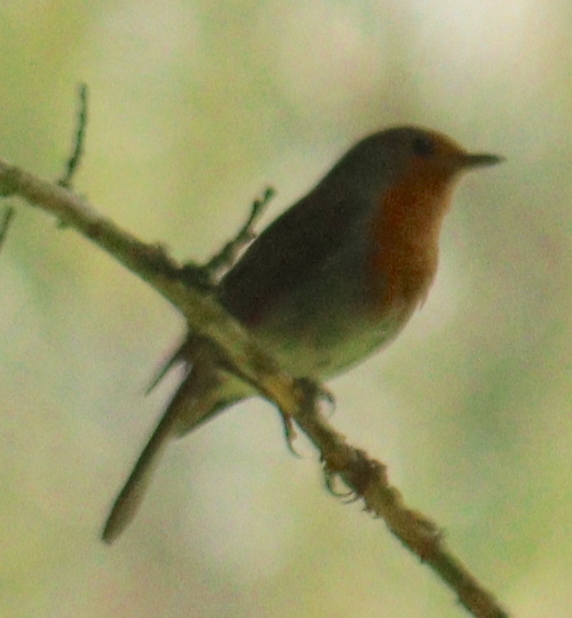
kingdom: Animalia
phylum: Chordata
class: Aves
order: Passeriformes
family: Muscicapidae
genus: Erithacus
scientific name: Erithacus rubecula
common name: European robin
